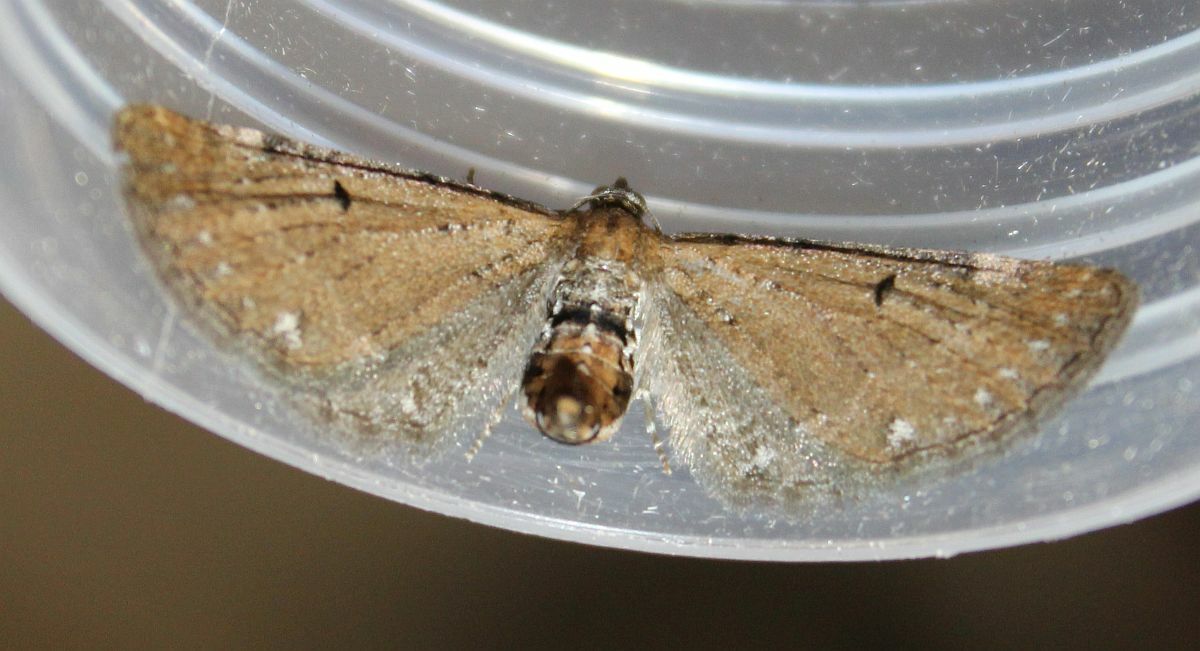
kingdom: Animalia
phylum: Arthropoda
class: Insecta
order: Lepidoptera
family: Geometridae
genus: Eupithecia
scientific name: Eupithecia absinthiata
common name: Wormwood pug
